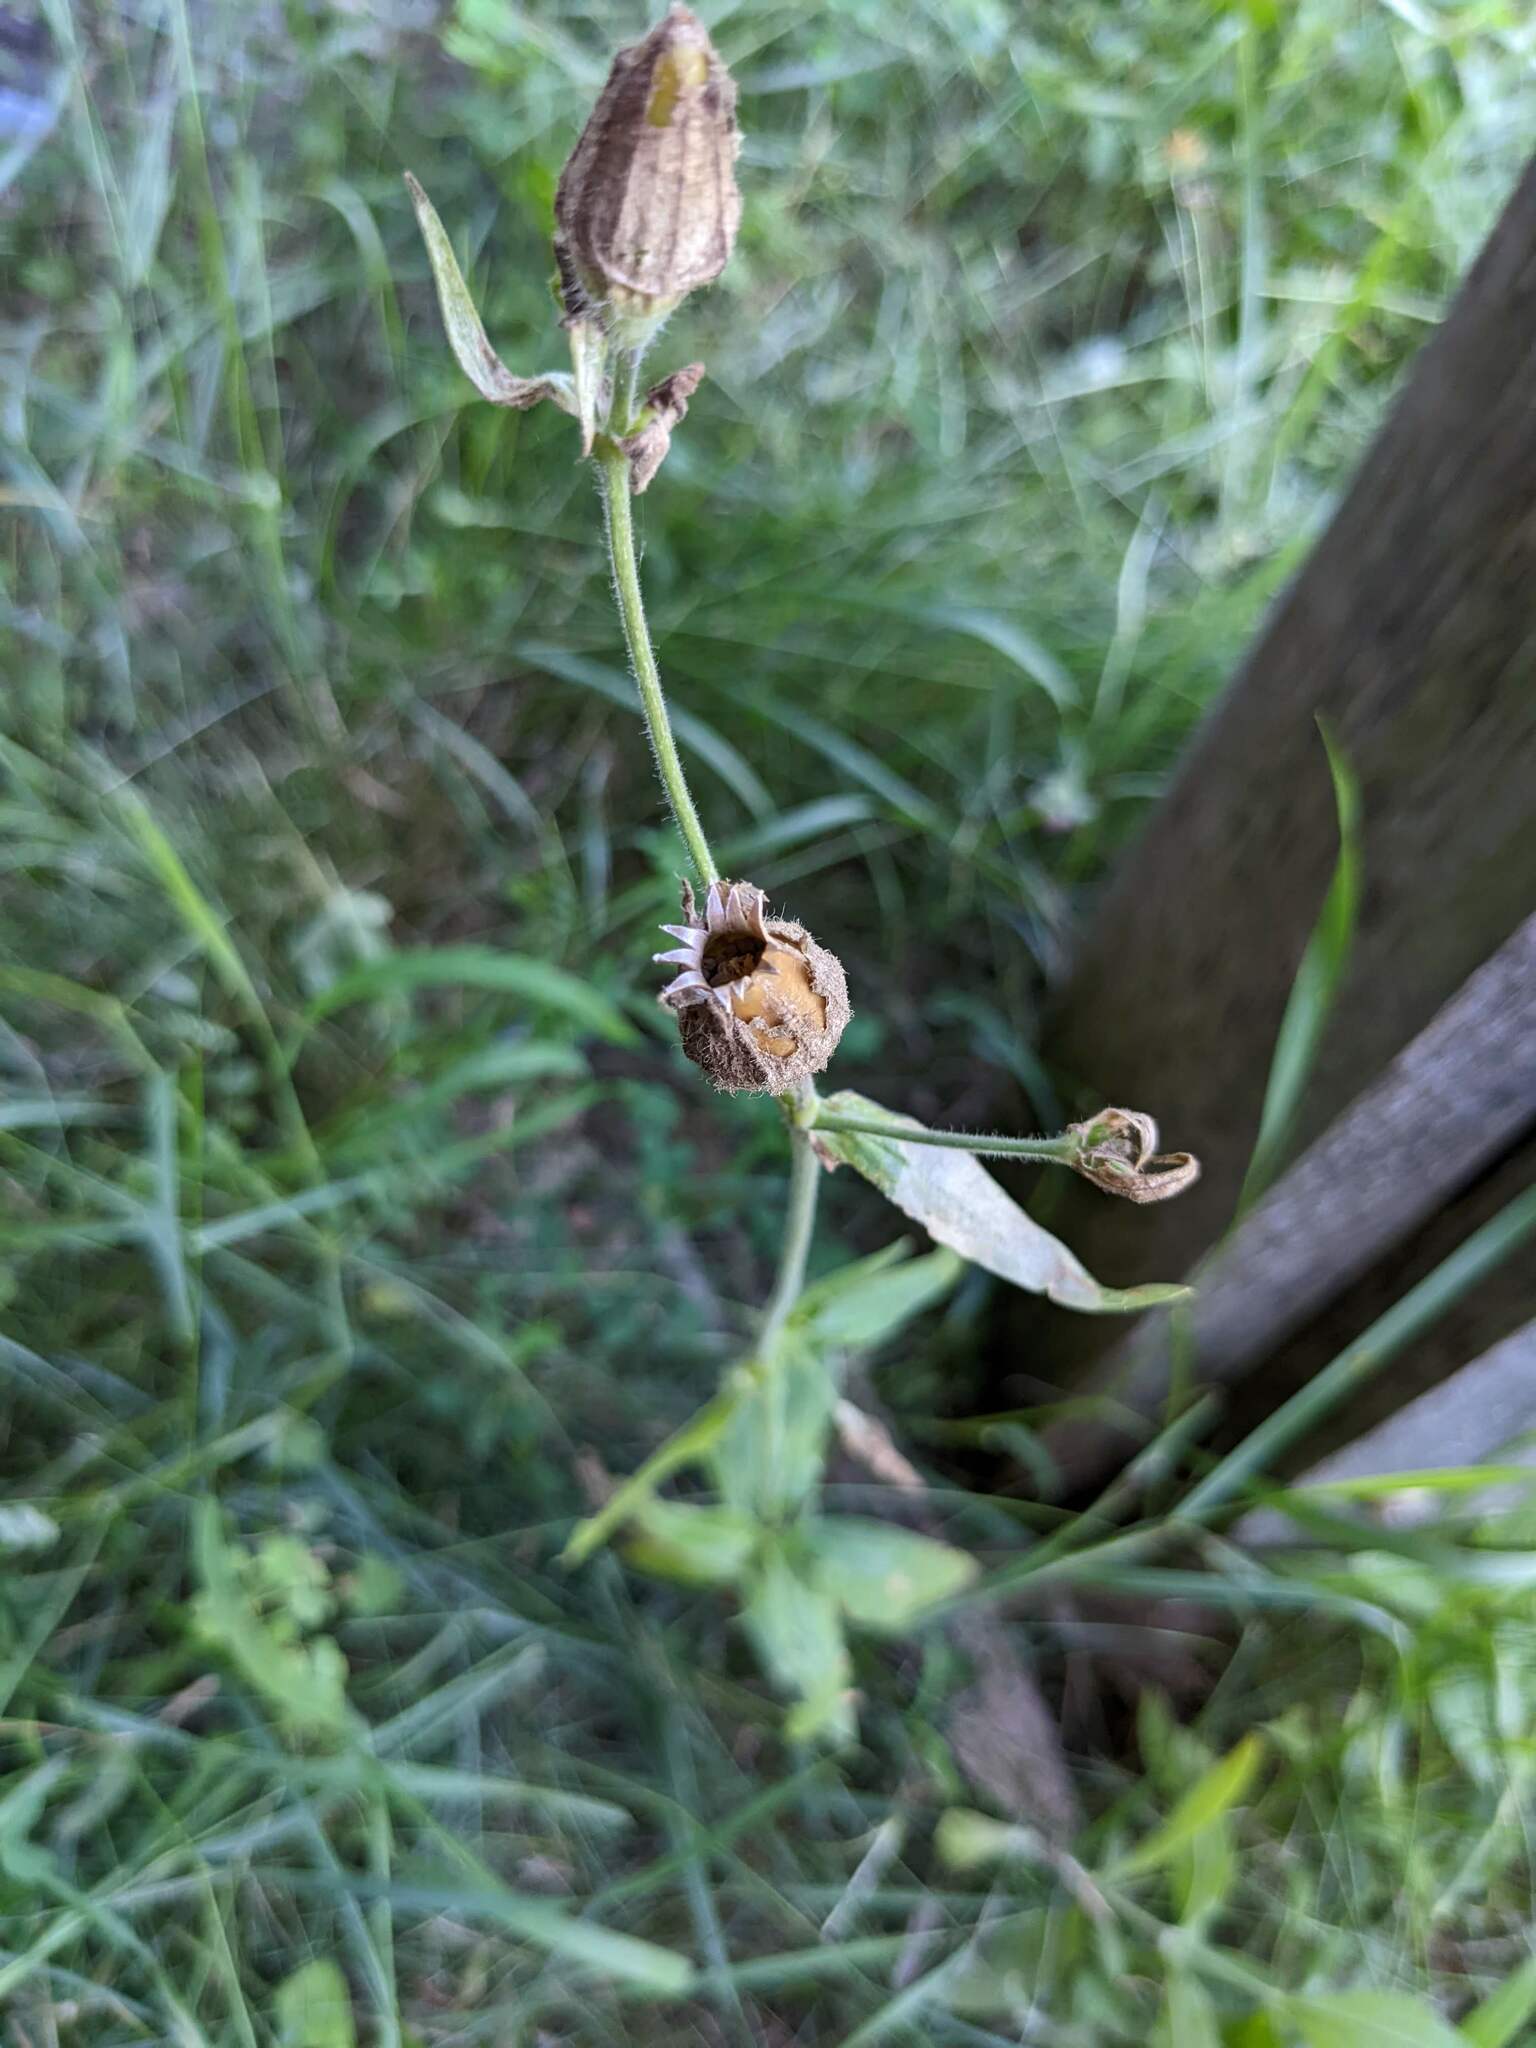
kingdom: Plantae
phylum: Tracheophyta
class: Magnoliopsida
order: Caryophyllales
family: Caryophyllaceae
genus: Silene
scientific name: Silene latifolia
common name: White campion
